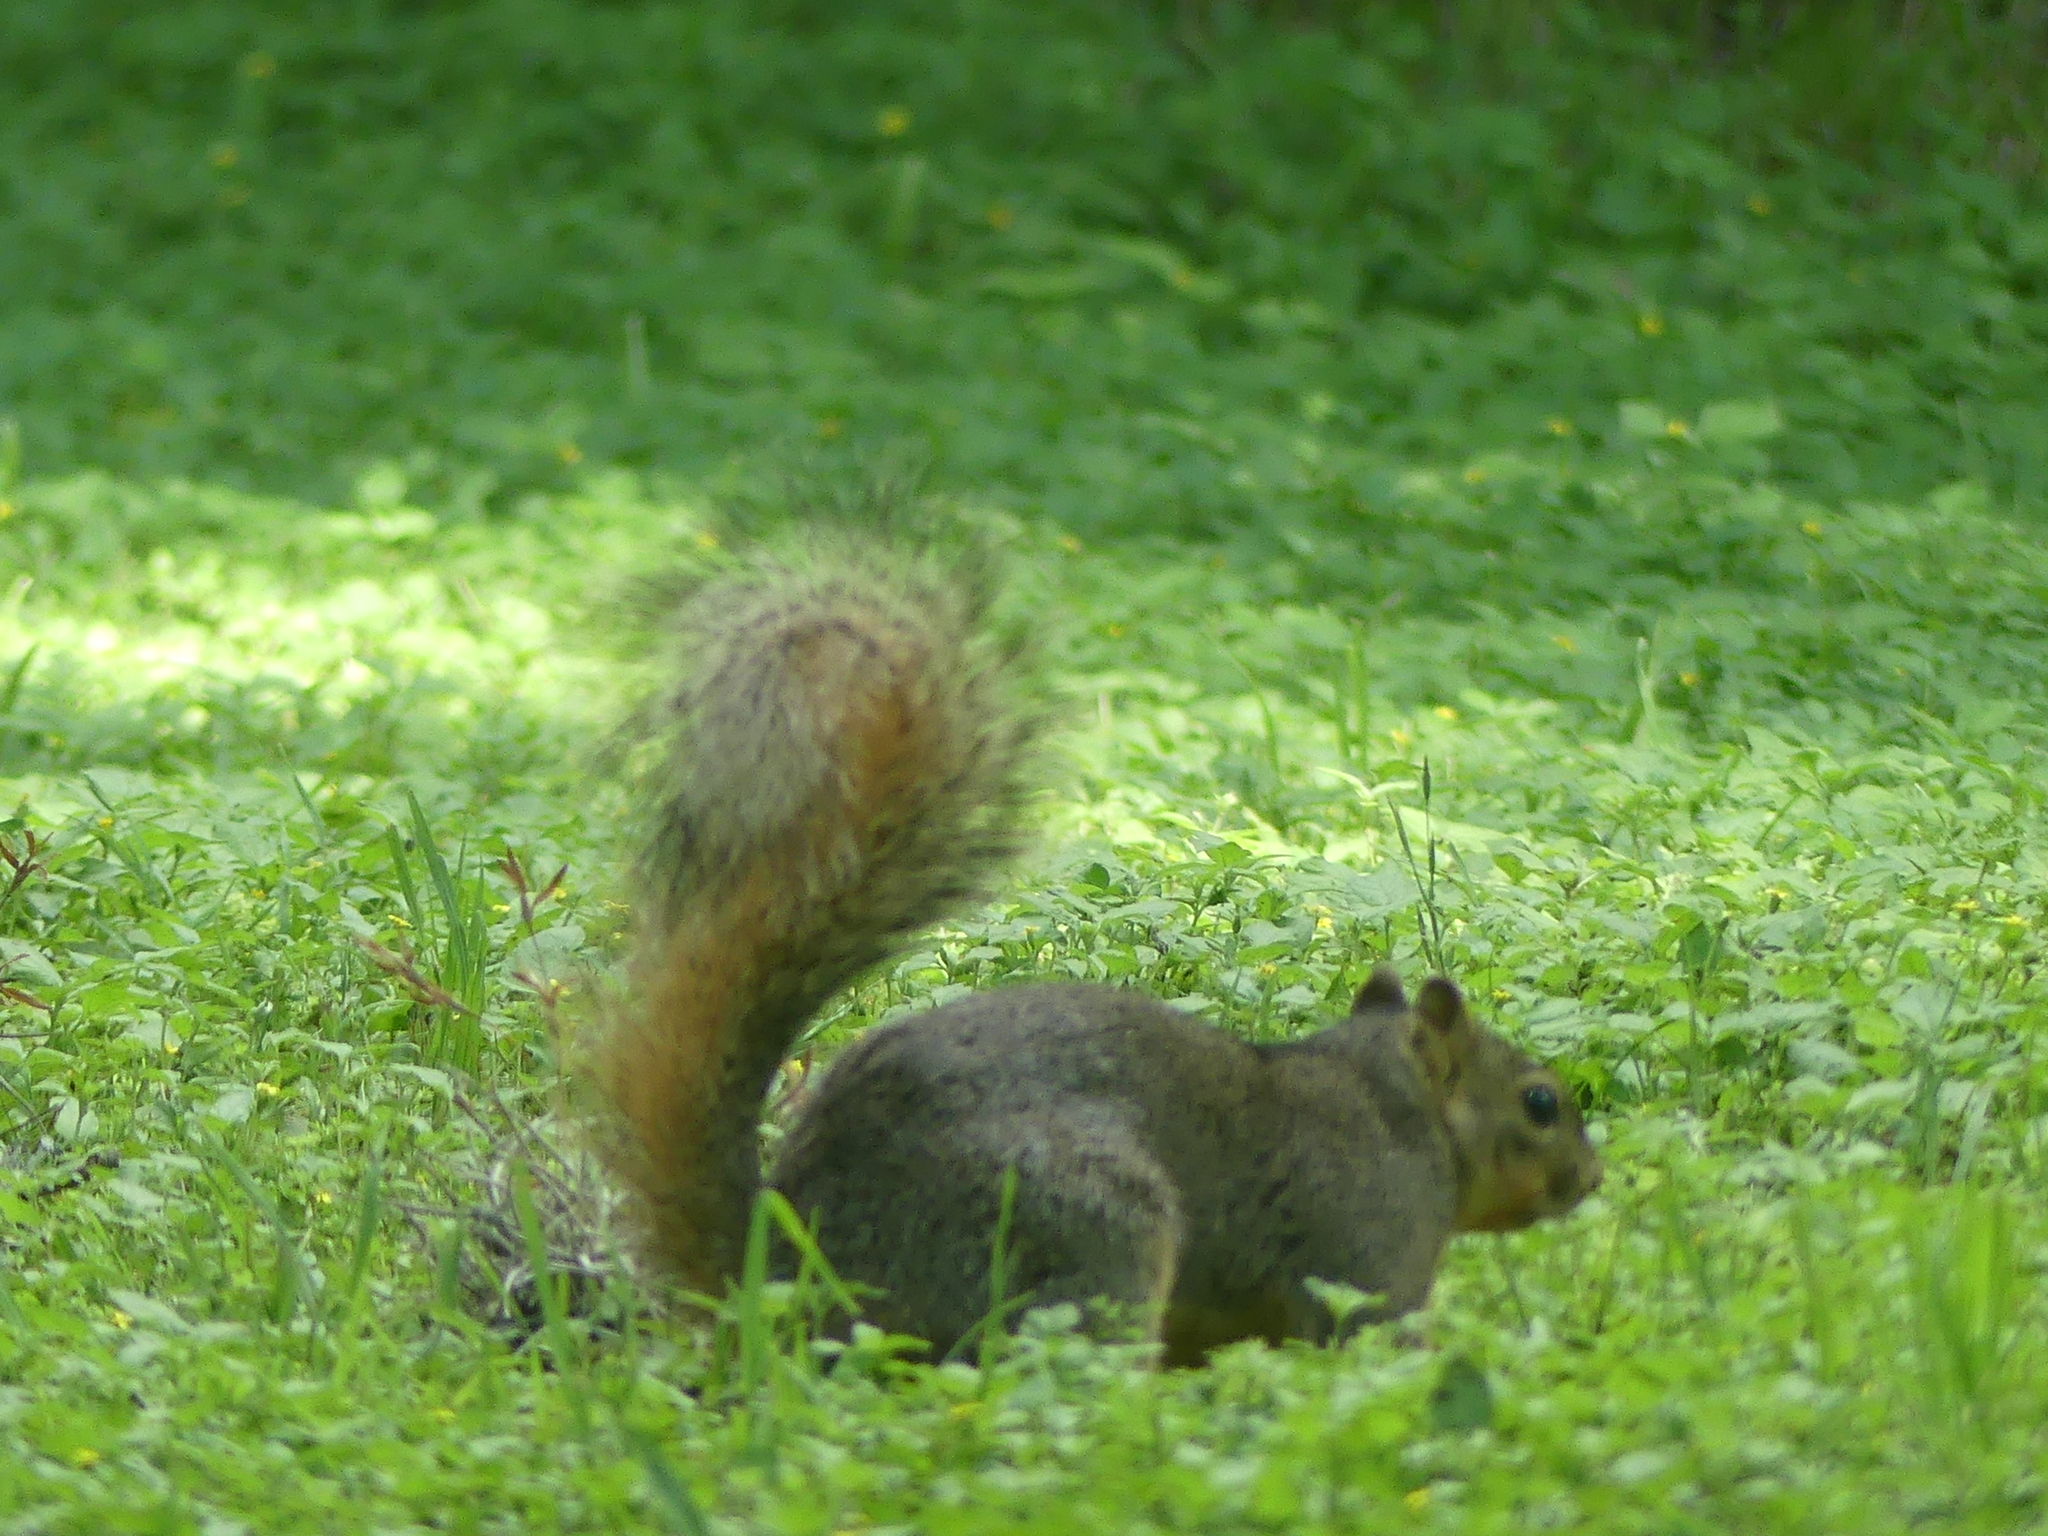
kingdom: Animalia
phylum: Chordata
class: Mammalia
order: Rodentia
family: Sciuridae
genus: Sciurus
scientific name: Sciurus niger
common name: Fox squirrel
